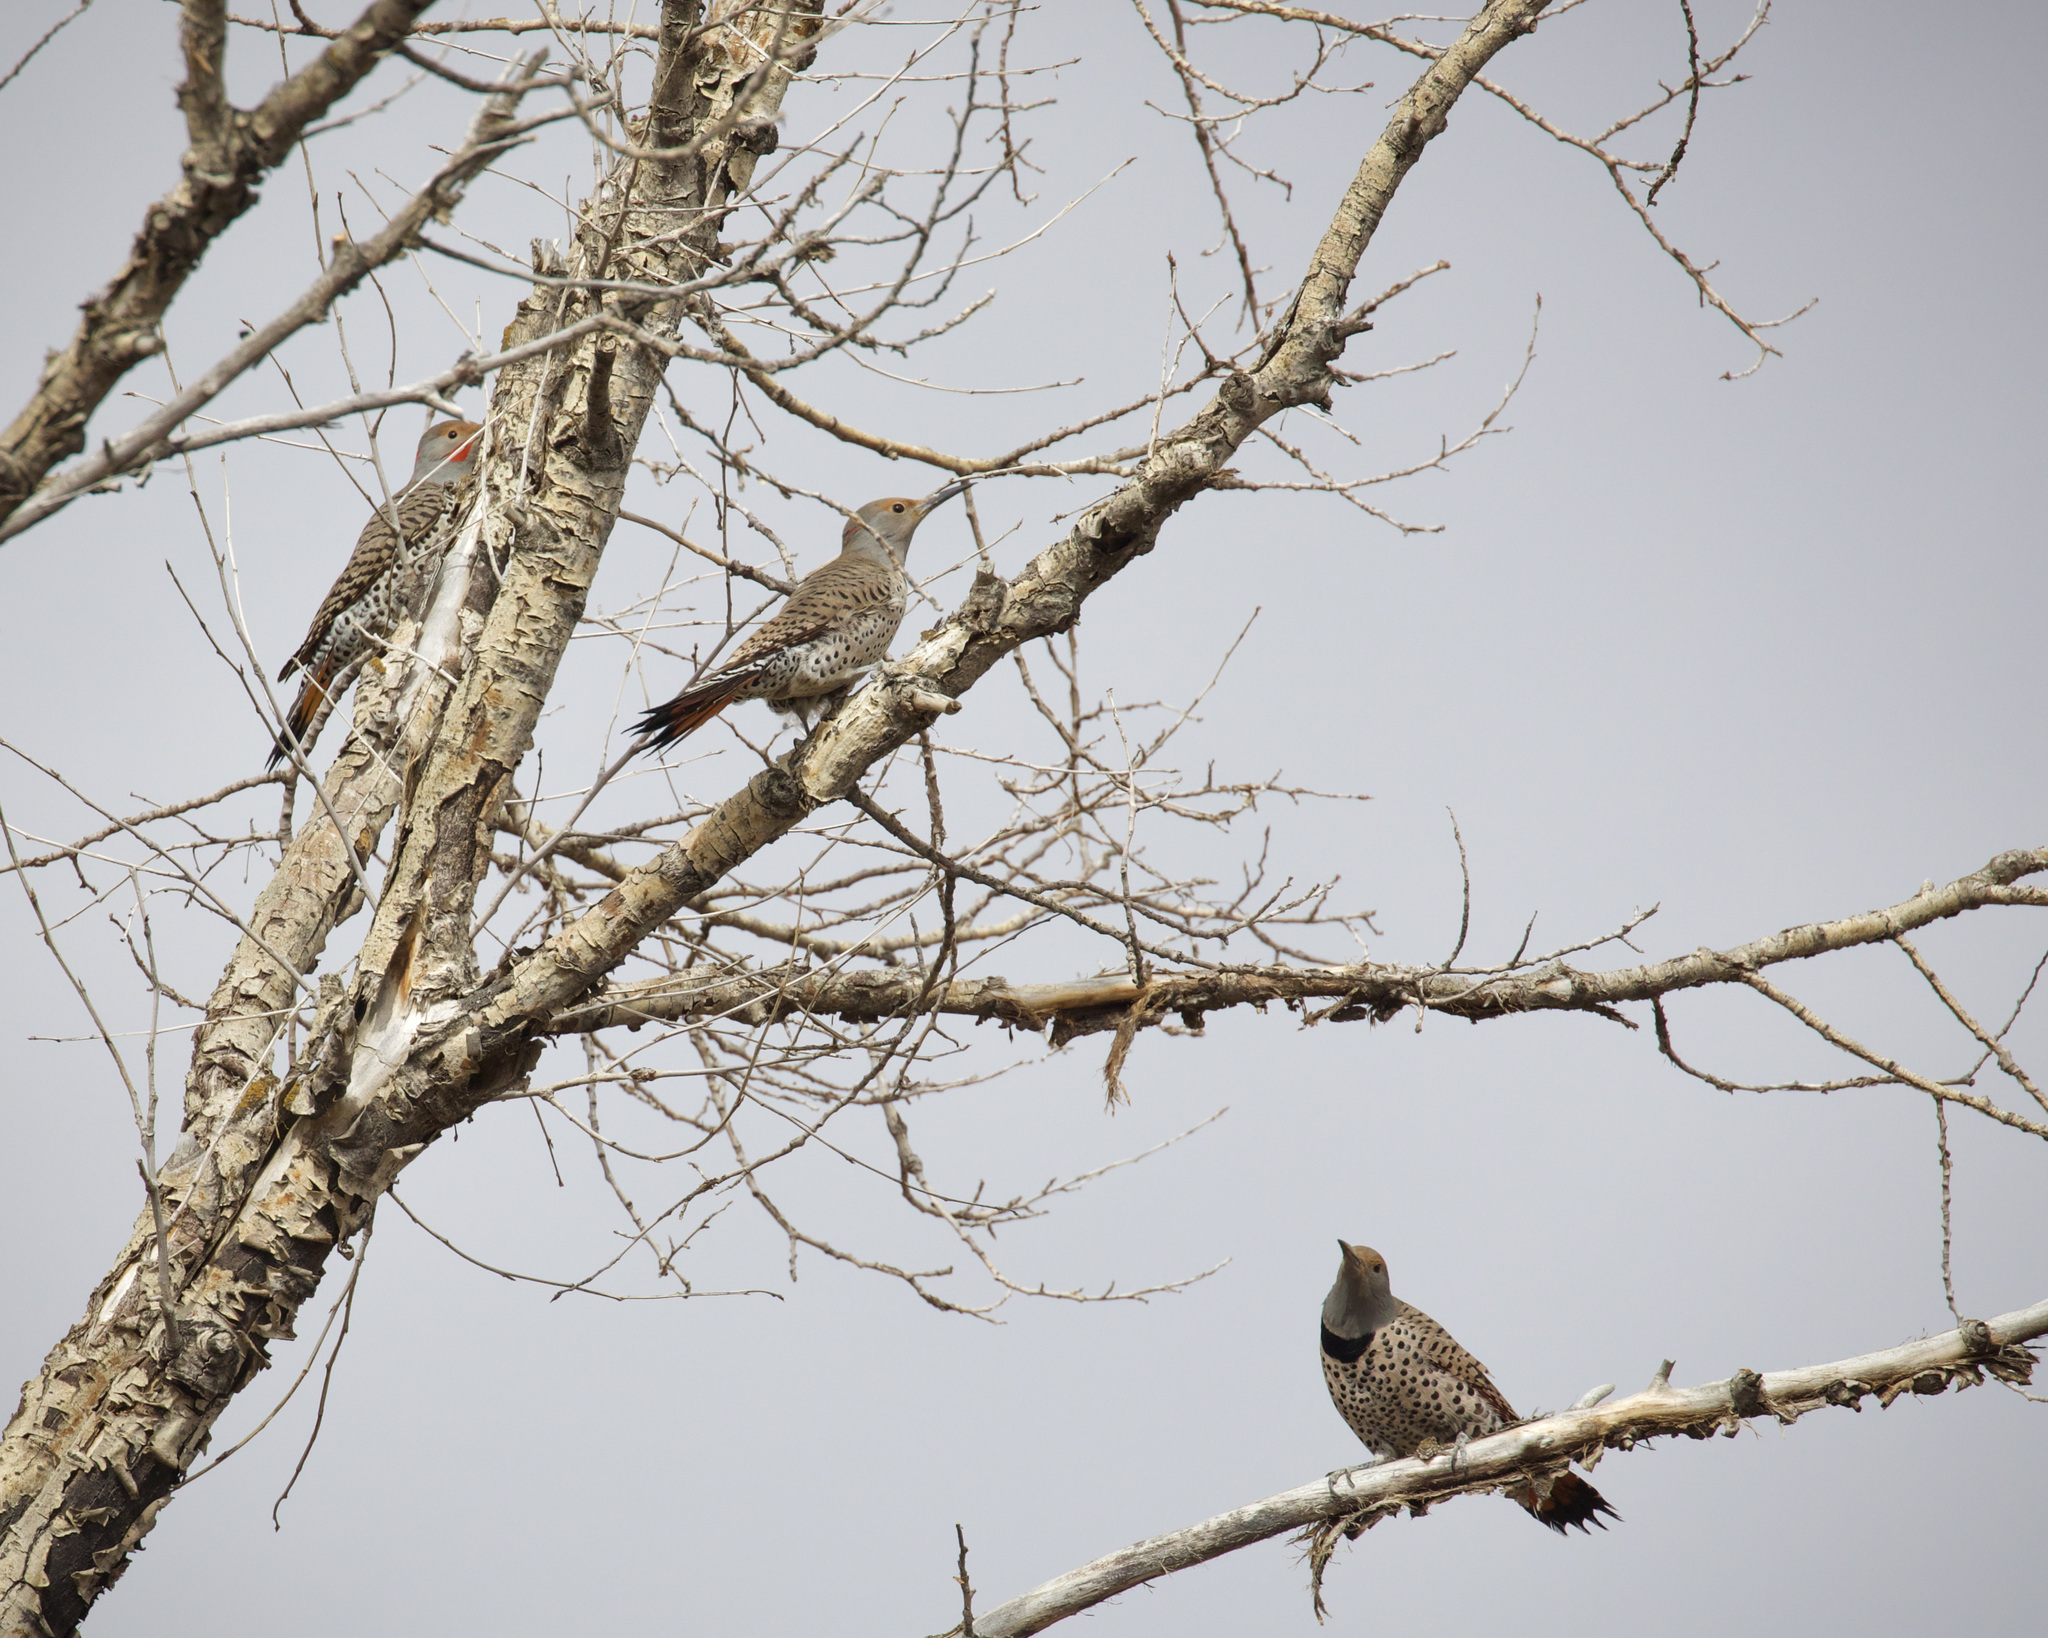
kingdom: Animalia
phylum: Chordata
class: Aves
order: Piciformes
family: Picidae
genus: Colaptes
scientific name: Colaptes auratus
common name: Northern flicker
